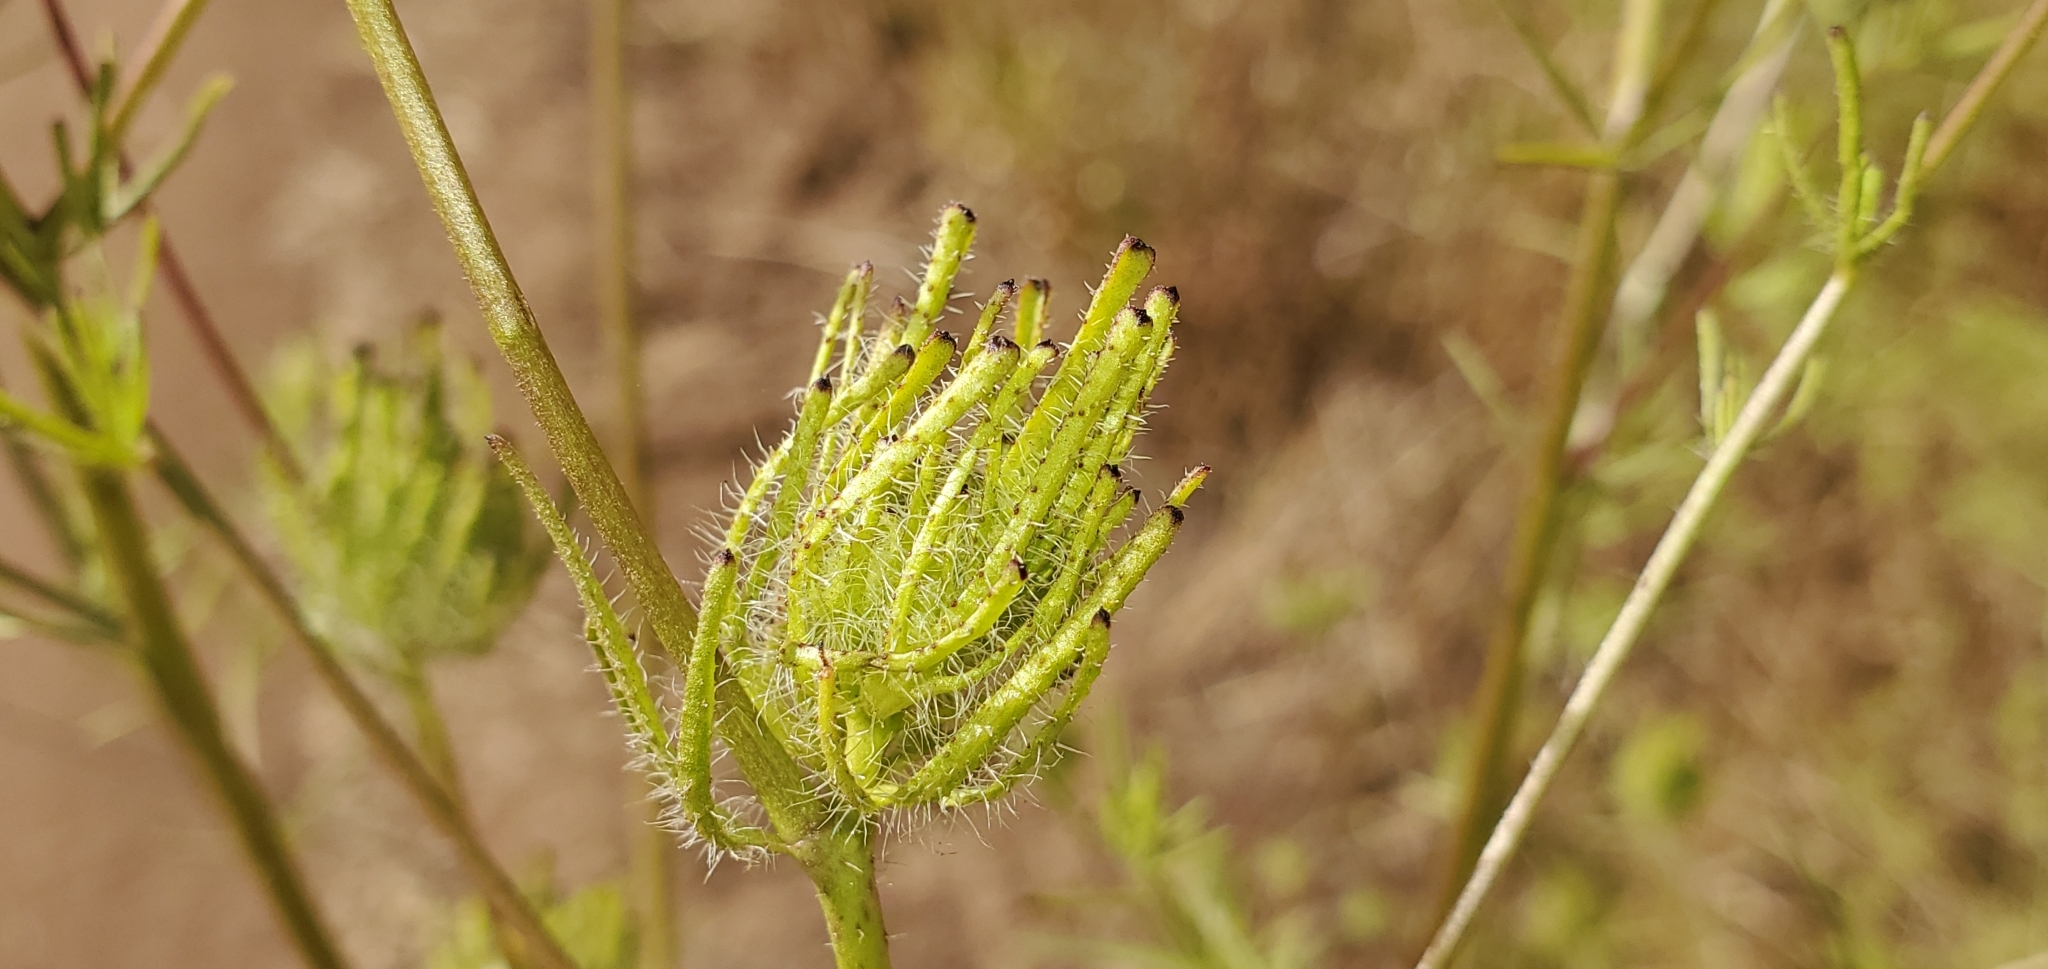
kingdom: Plantae
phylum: Tracheophyta
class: Magnoliopsida
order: Lamiales
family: Orobanchaceae
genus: Cordylanthus
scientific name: Cordylanthus rigidus
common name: Stiff-branch bird's-beak
